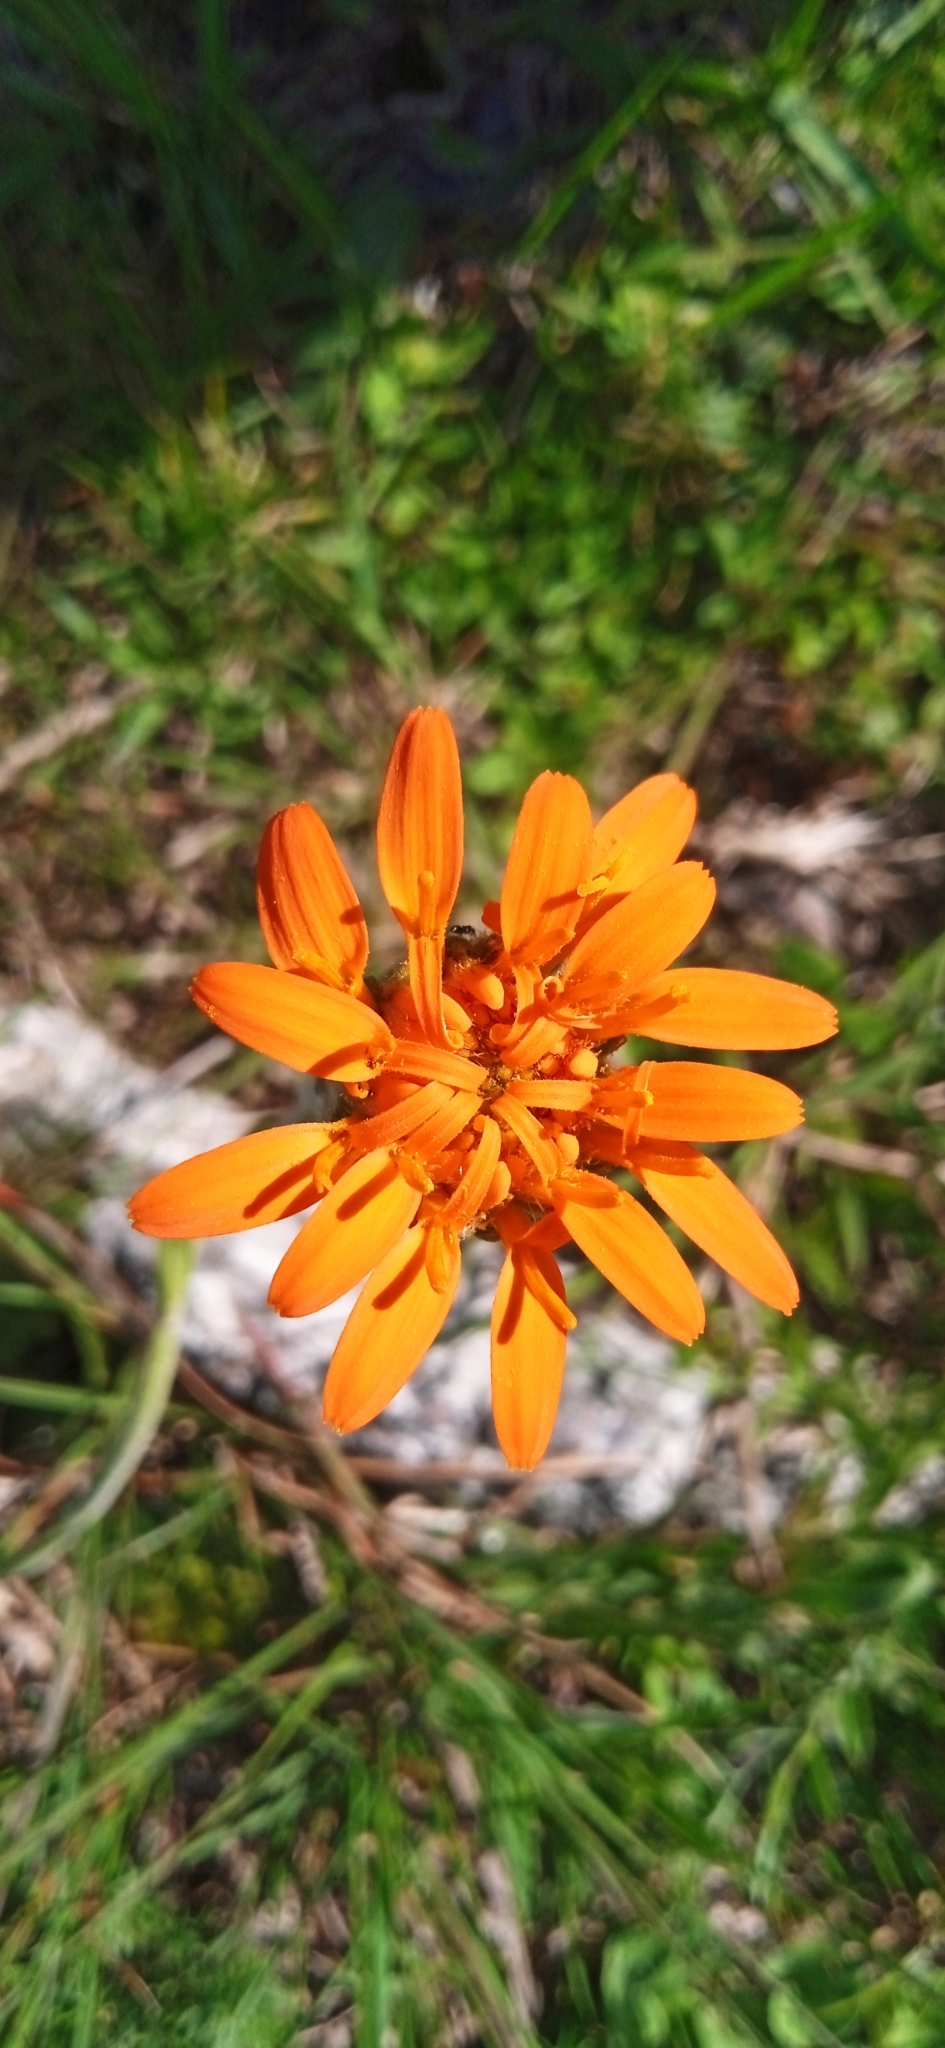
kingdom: Plantae
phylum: Tracheophyta
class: Magnoliopsida
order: Asterales
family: Asteraceae
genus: Criscia
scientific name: Criscia stricta
